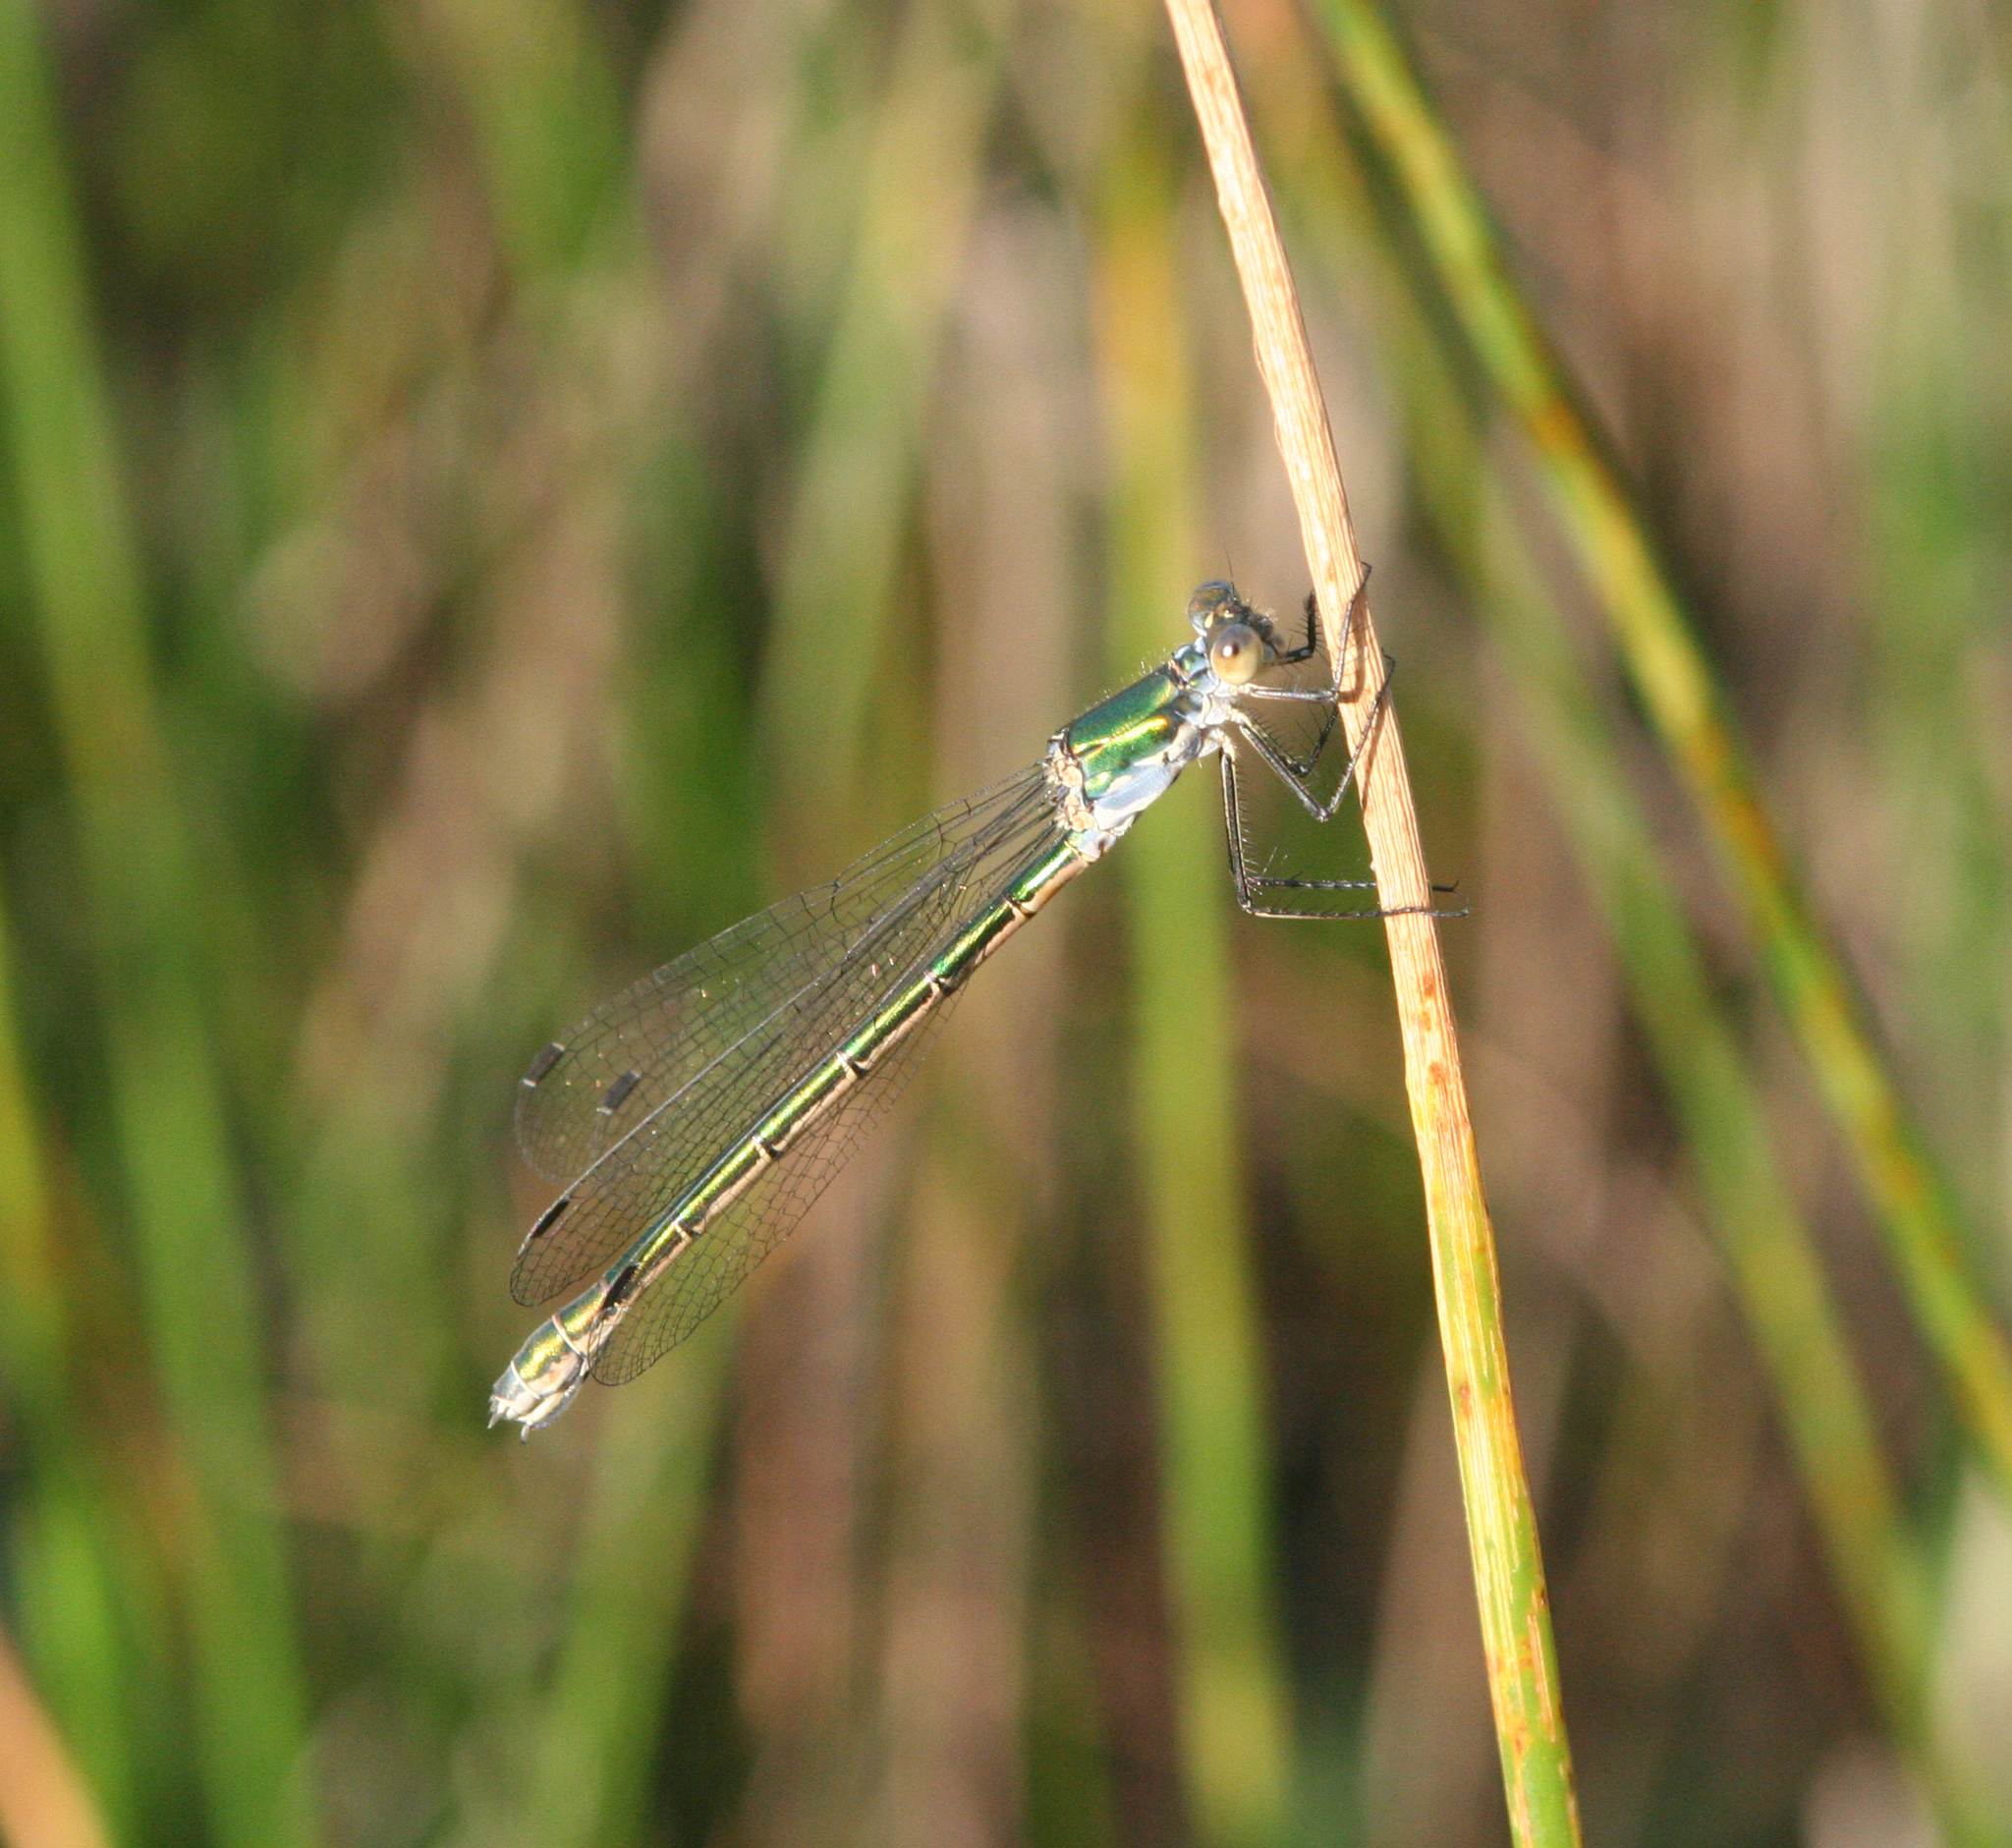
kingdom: Animalia
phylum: Arthropoda
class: Insecta
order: Odonata
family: Lestidae
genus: Lestes
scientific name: Lestes dryas
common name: Scarce emerald damselfly
